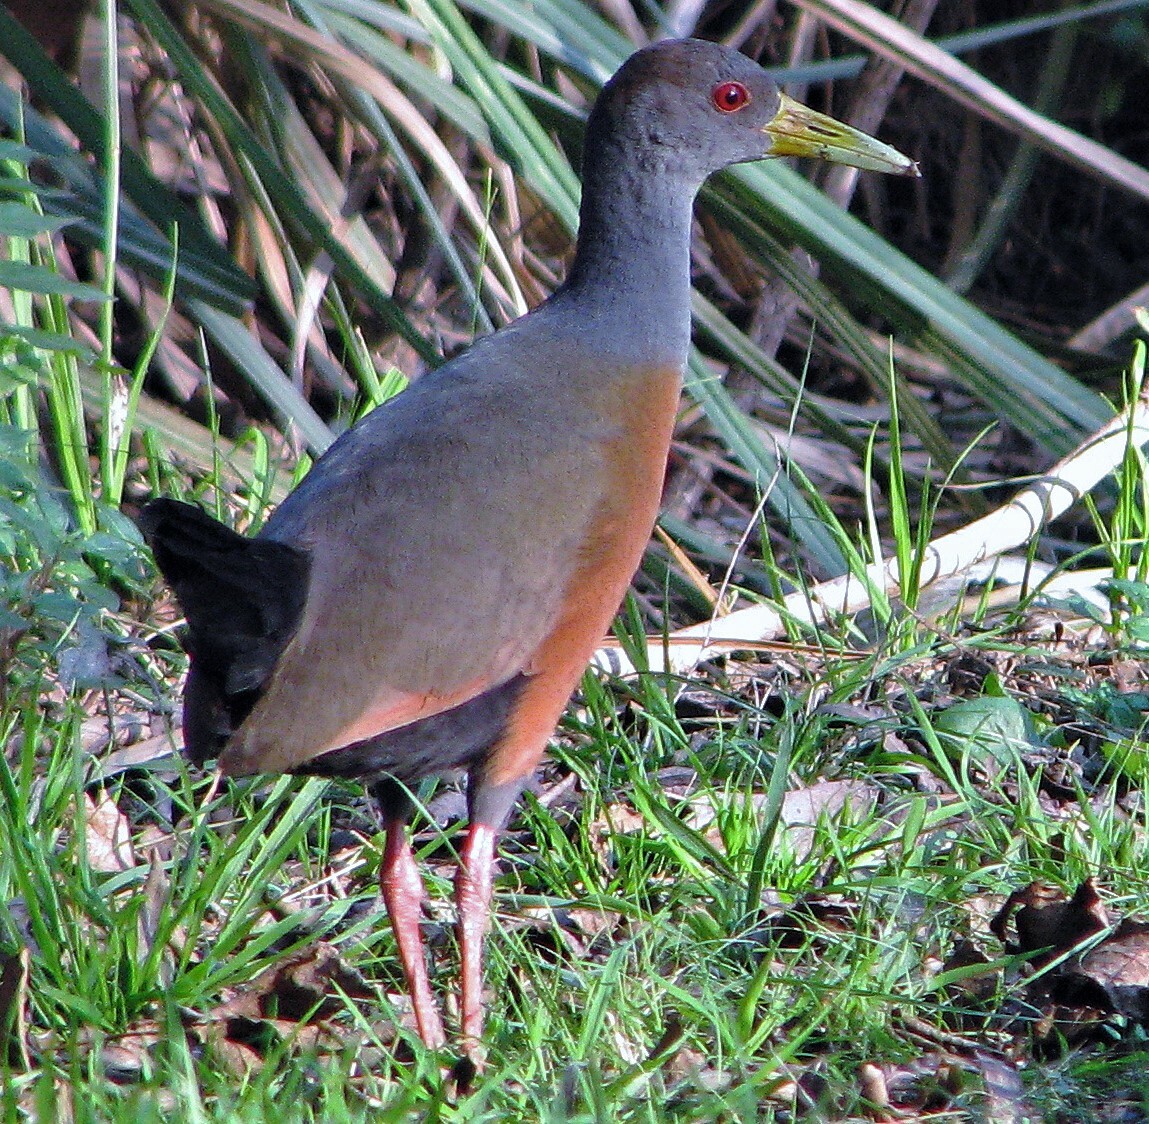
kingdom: Animalia
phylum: Chordata
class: Aves
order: Gruiformes
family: Rallidae
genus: Aramides
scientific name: Aramides cajanea
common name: Gray-necked wood-rail
